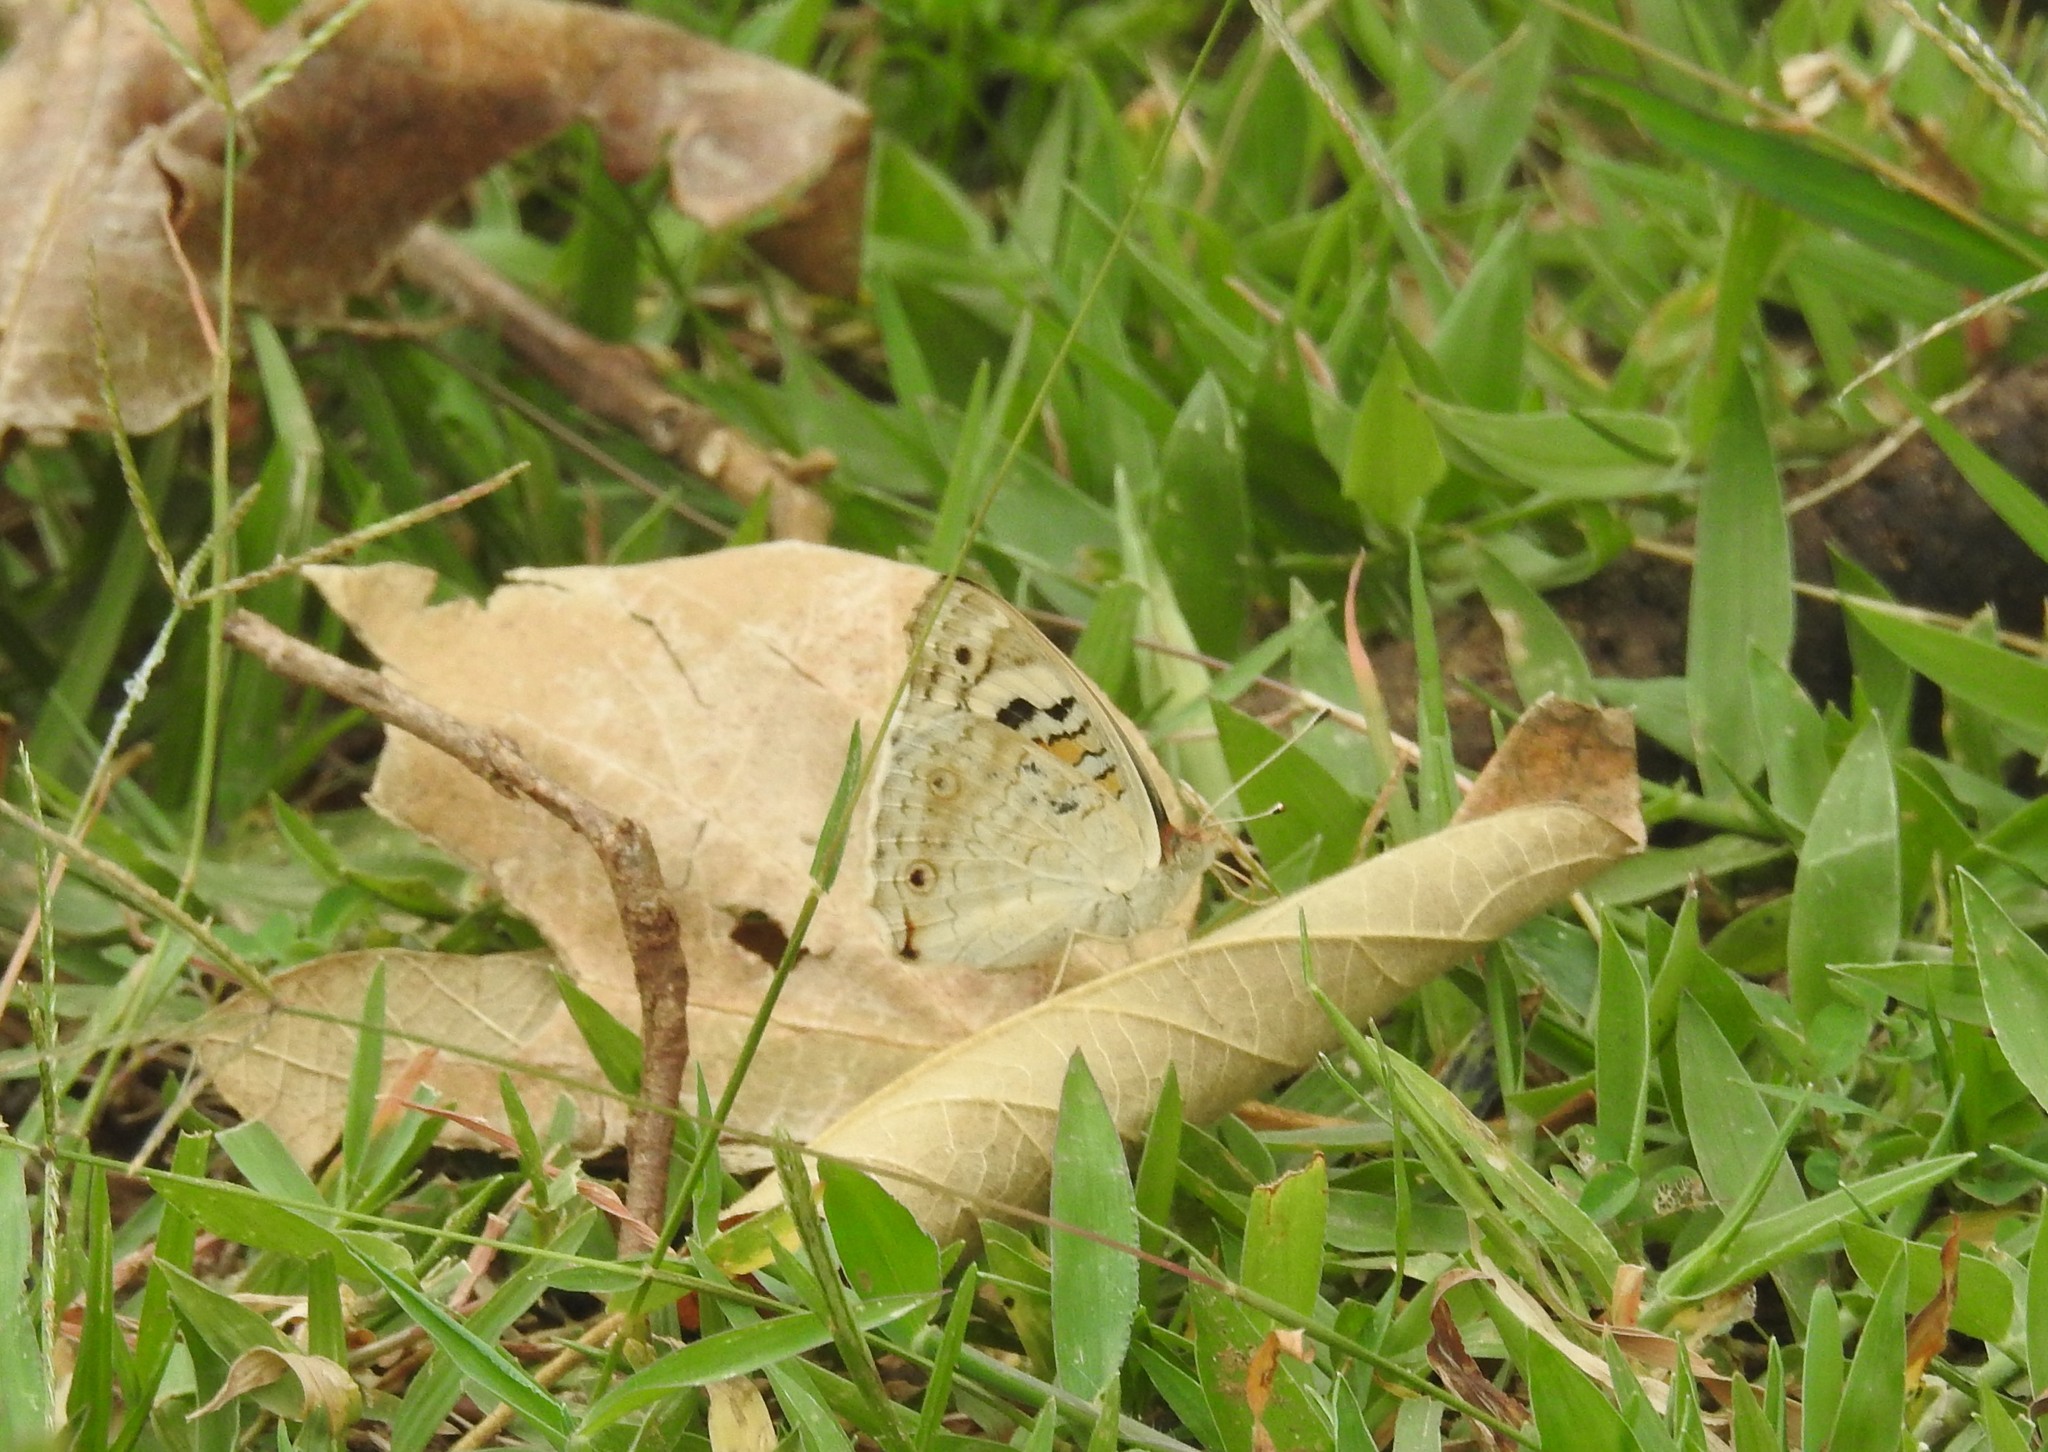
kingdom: Animalia
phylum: Arthropoda
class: Insecta
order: Lepidoptera
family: Nymphalidae
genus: Junonia
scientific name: Junonia orithya
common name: Blue pansy
